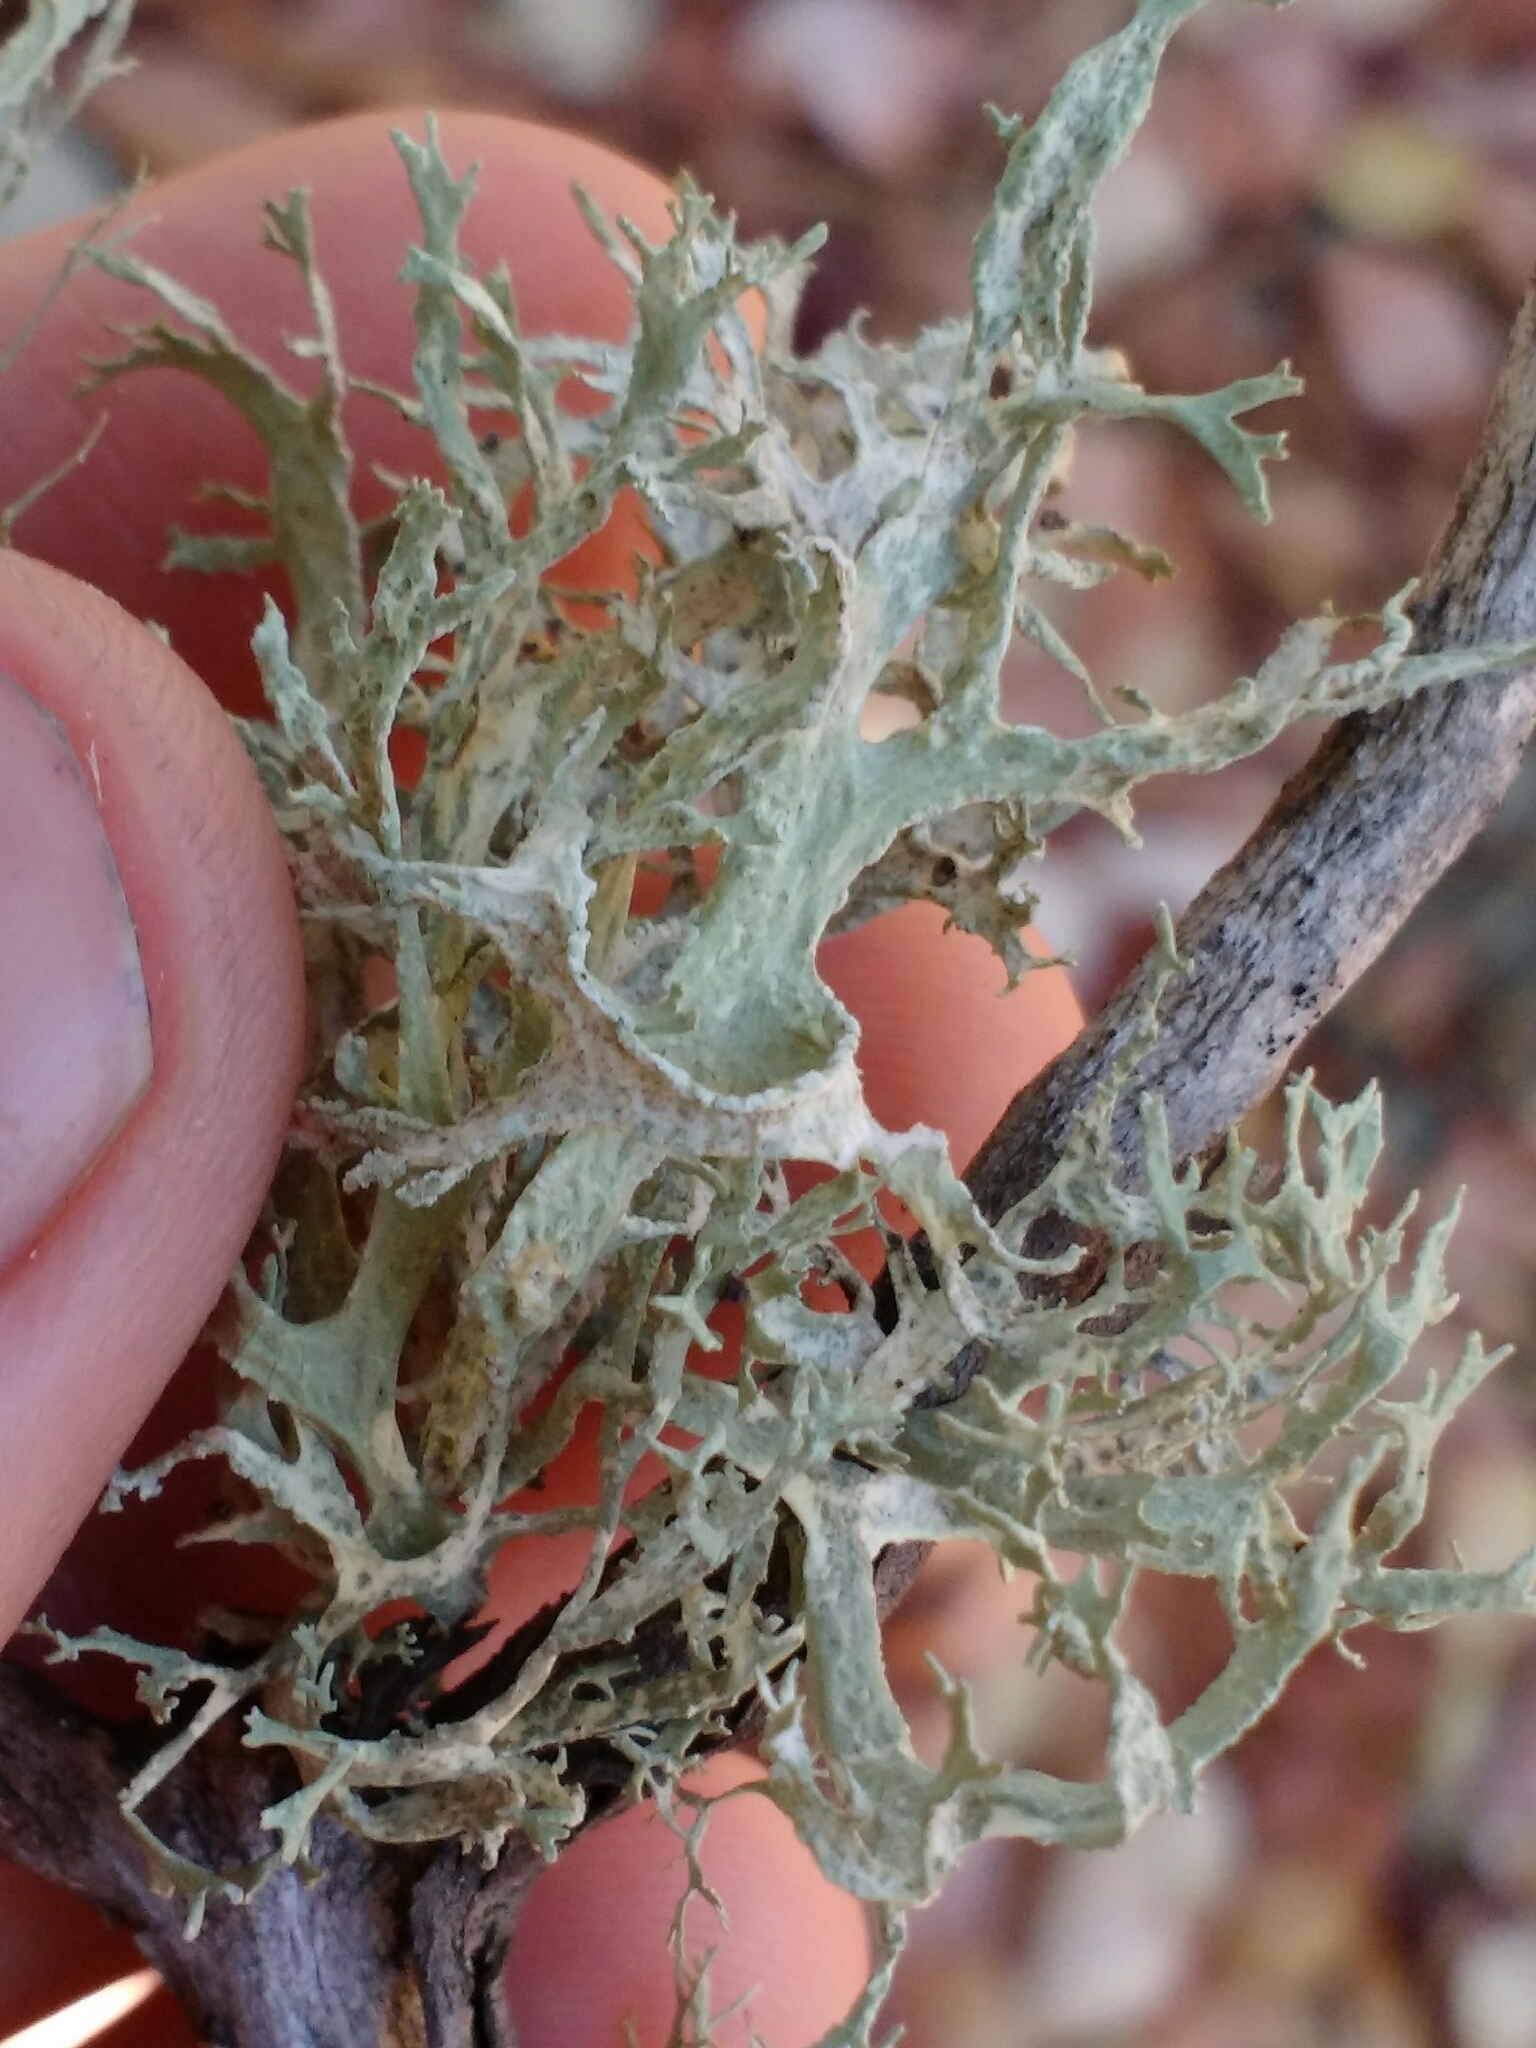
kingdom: Fungi
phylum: Ascomycota
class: Lecanoromycetes
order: Lecanorales
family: Parmeliaceae
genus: Evernia
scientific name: Evernia prunastri
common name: Oak moss
